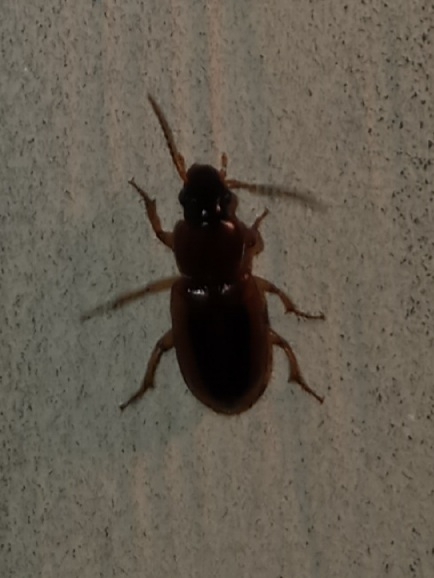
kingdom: Animalia
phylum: Arthropoda
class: Insecta
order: Coleoptera
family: Carabidae
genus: Stenolophus
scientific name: Stenolophus dissimilis
